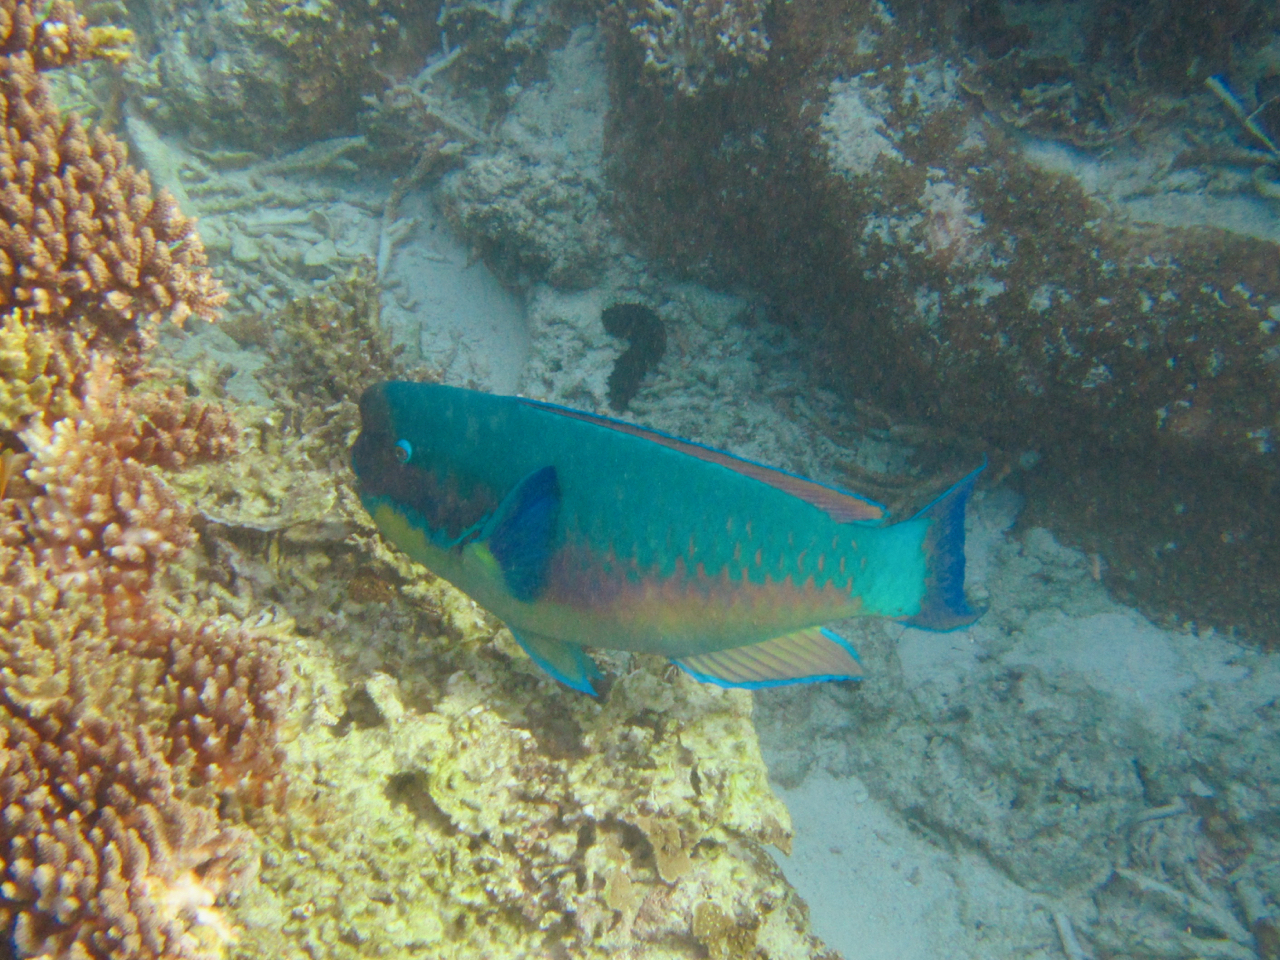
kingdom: Animalia
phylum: Chordata
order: Perciformes
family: Scaridae
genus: Chlorurus
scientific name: Chlorurus microrhinos
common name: Steephead parrotfish
